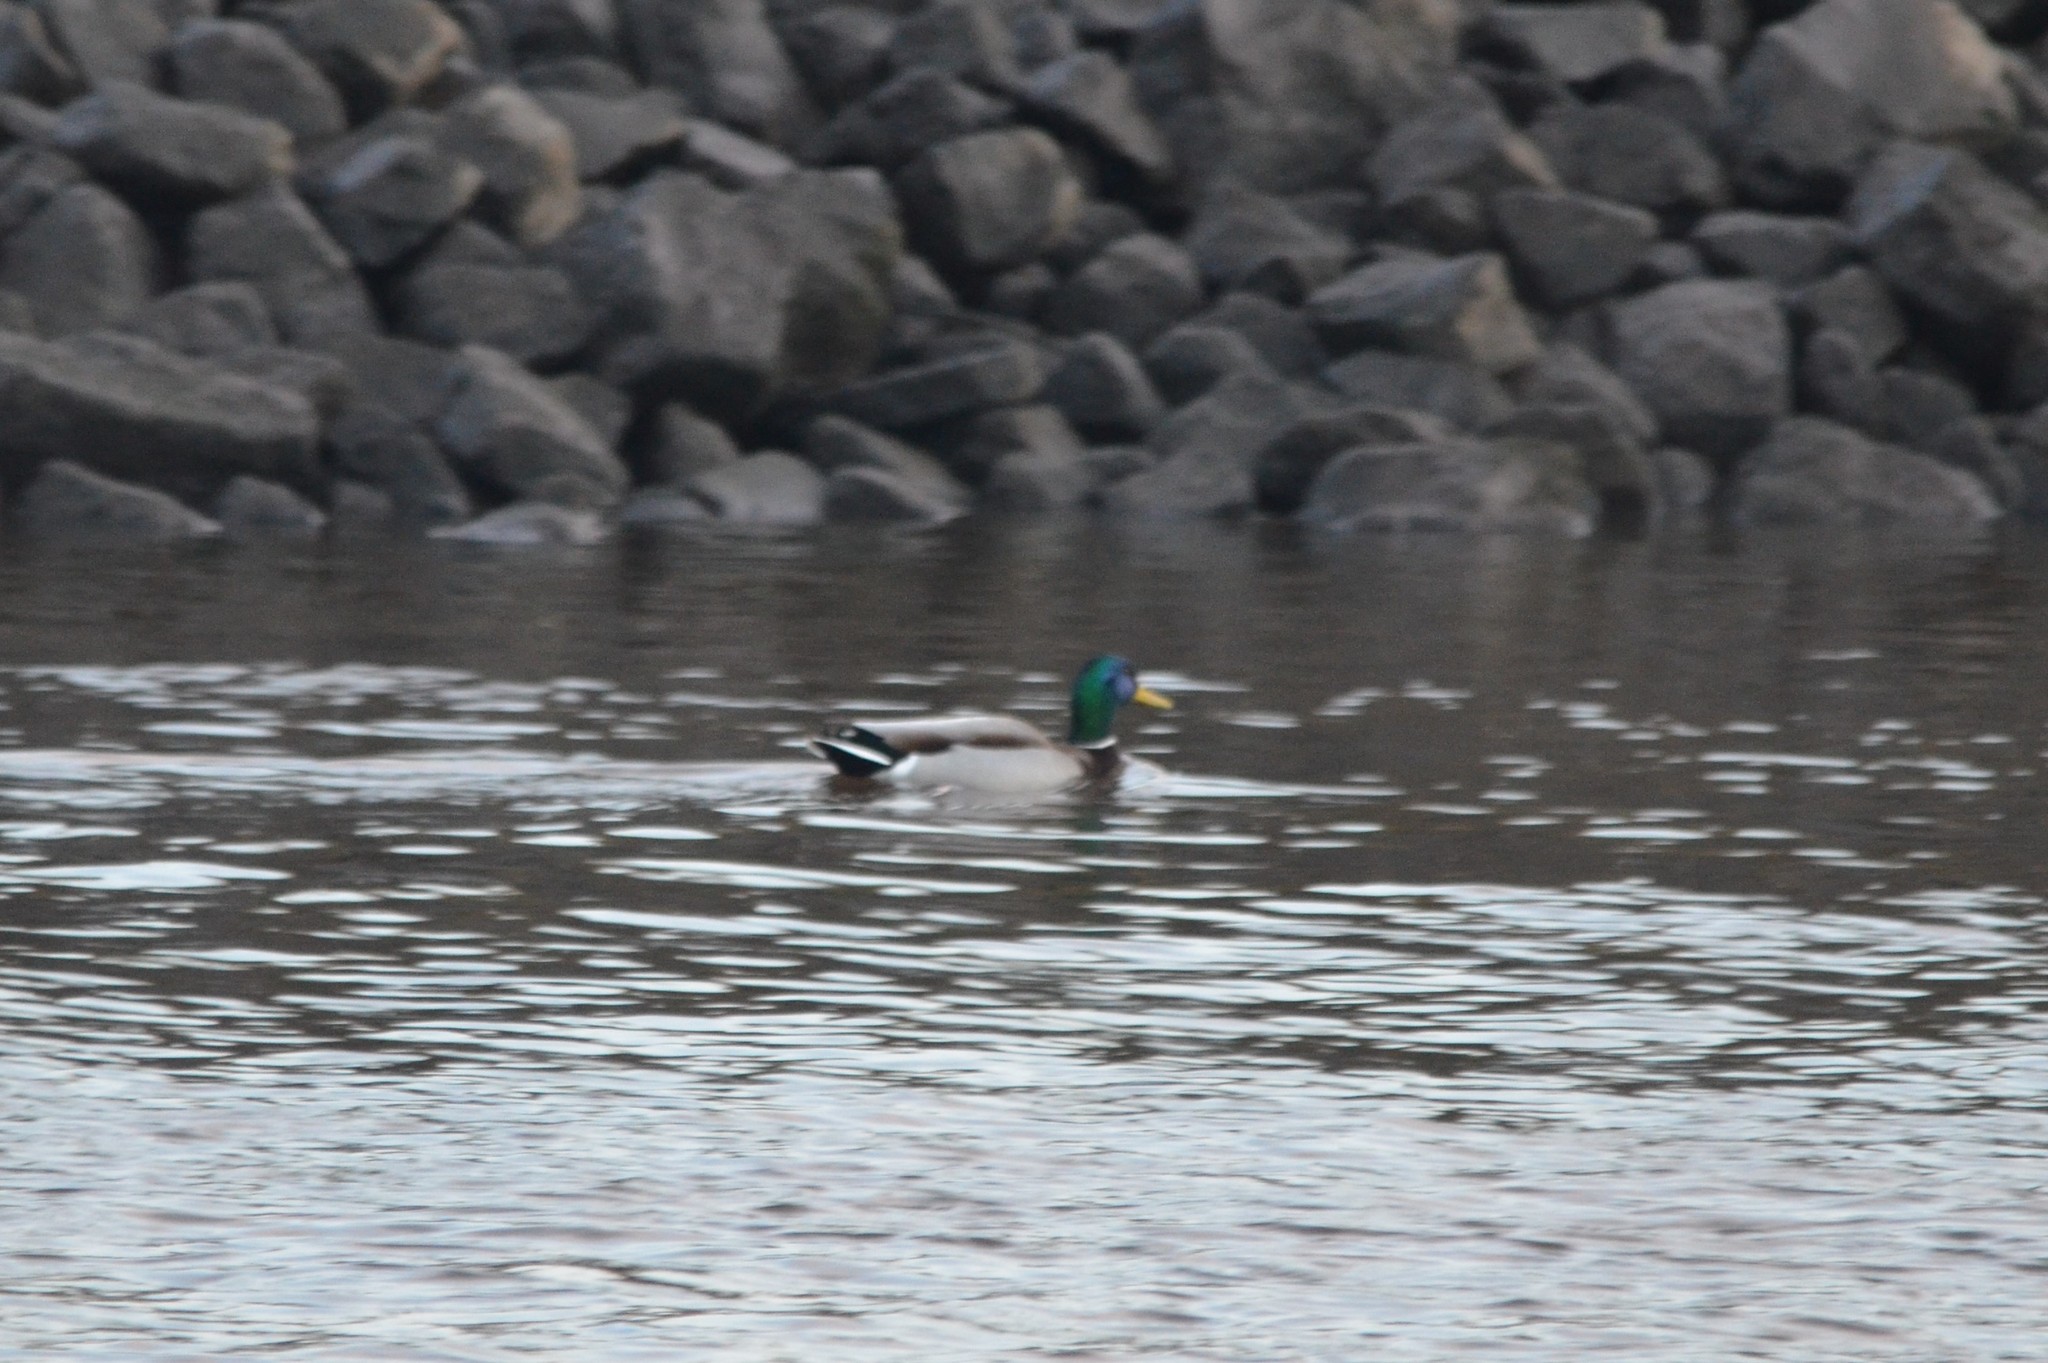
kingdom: Animalia
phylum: Chordata
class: Aves
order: Anseriformes
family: Anatidae
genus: Anas
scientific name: Anas platyrhynchos
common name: Mallard
